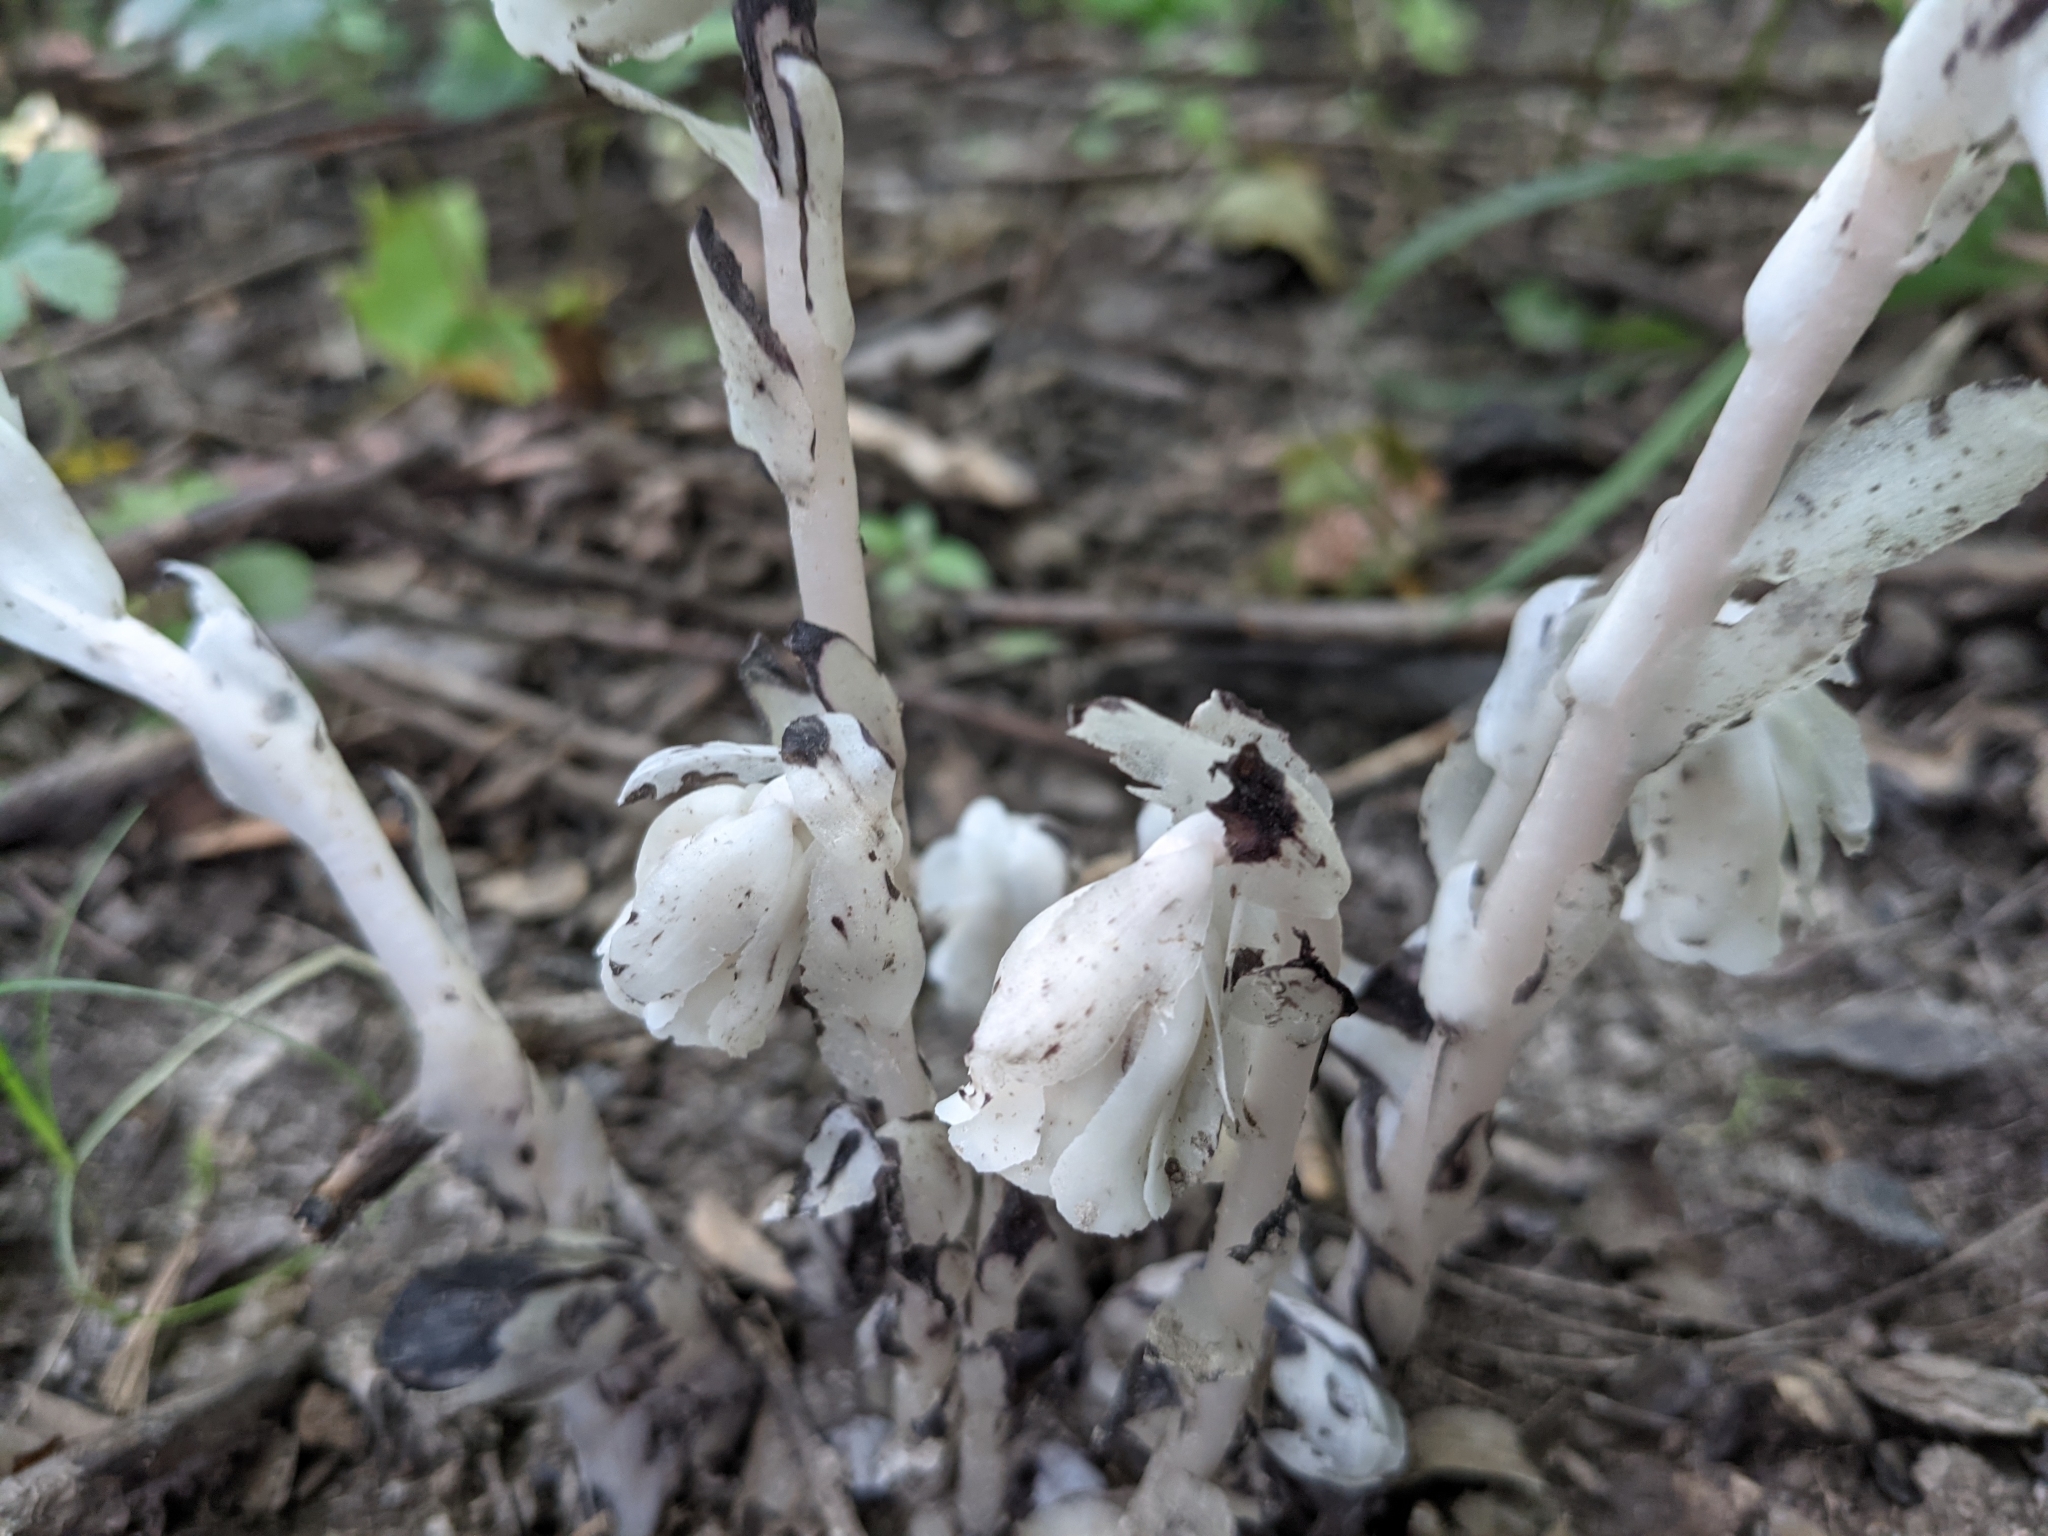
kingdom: Plantae
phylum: Tracheophyta
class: Magnoliopsida
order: Ericales
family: Ericaceae
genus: Monotropa
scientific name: Monotropa uniflora
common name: Convulsion root
